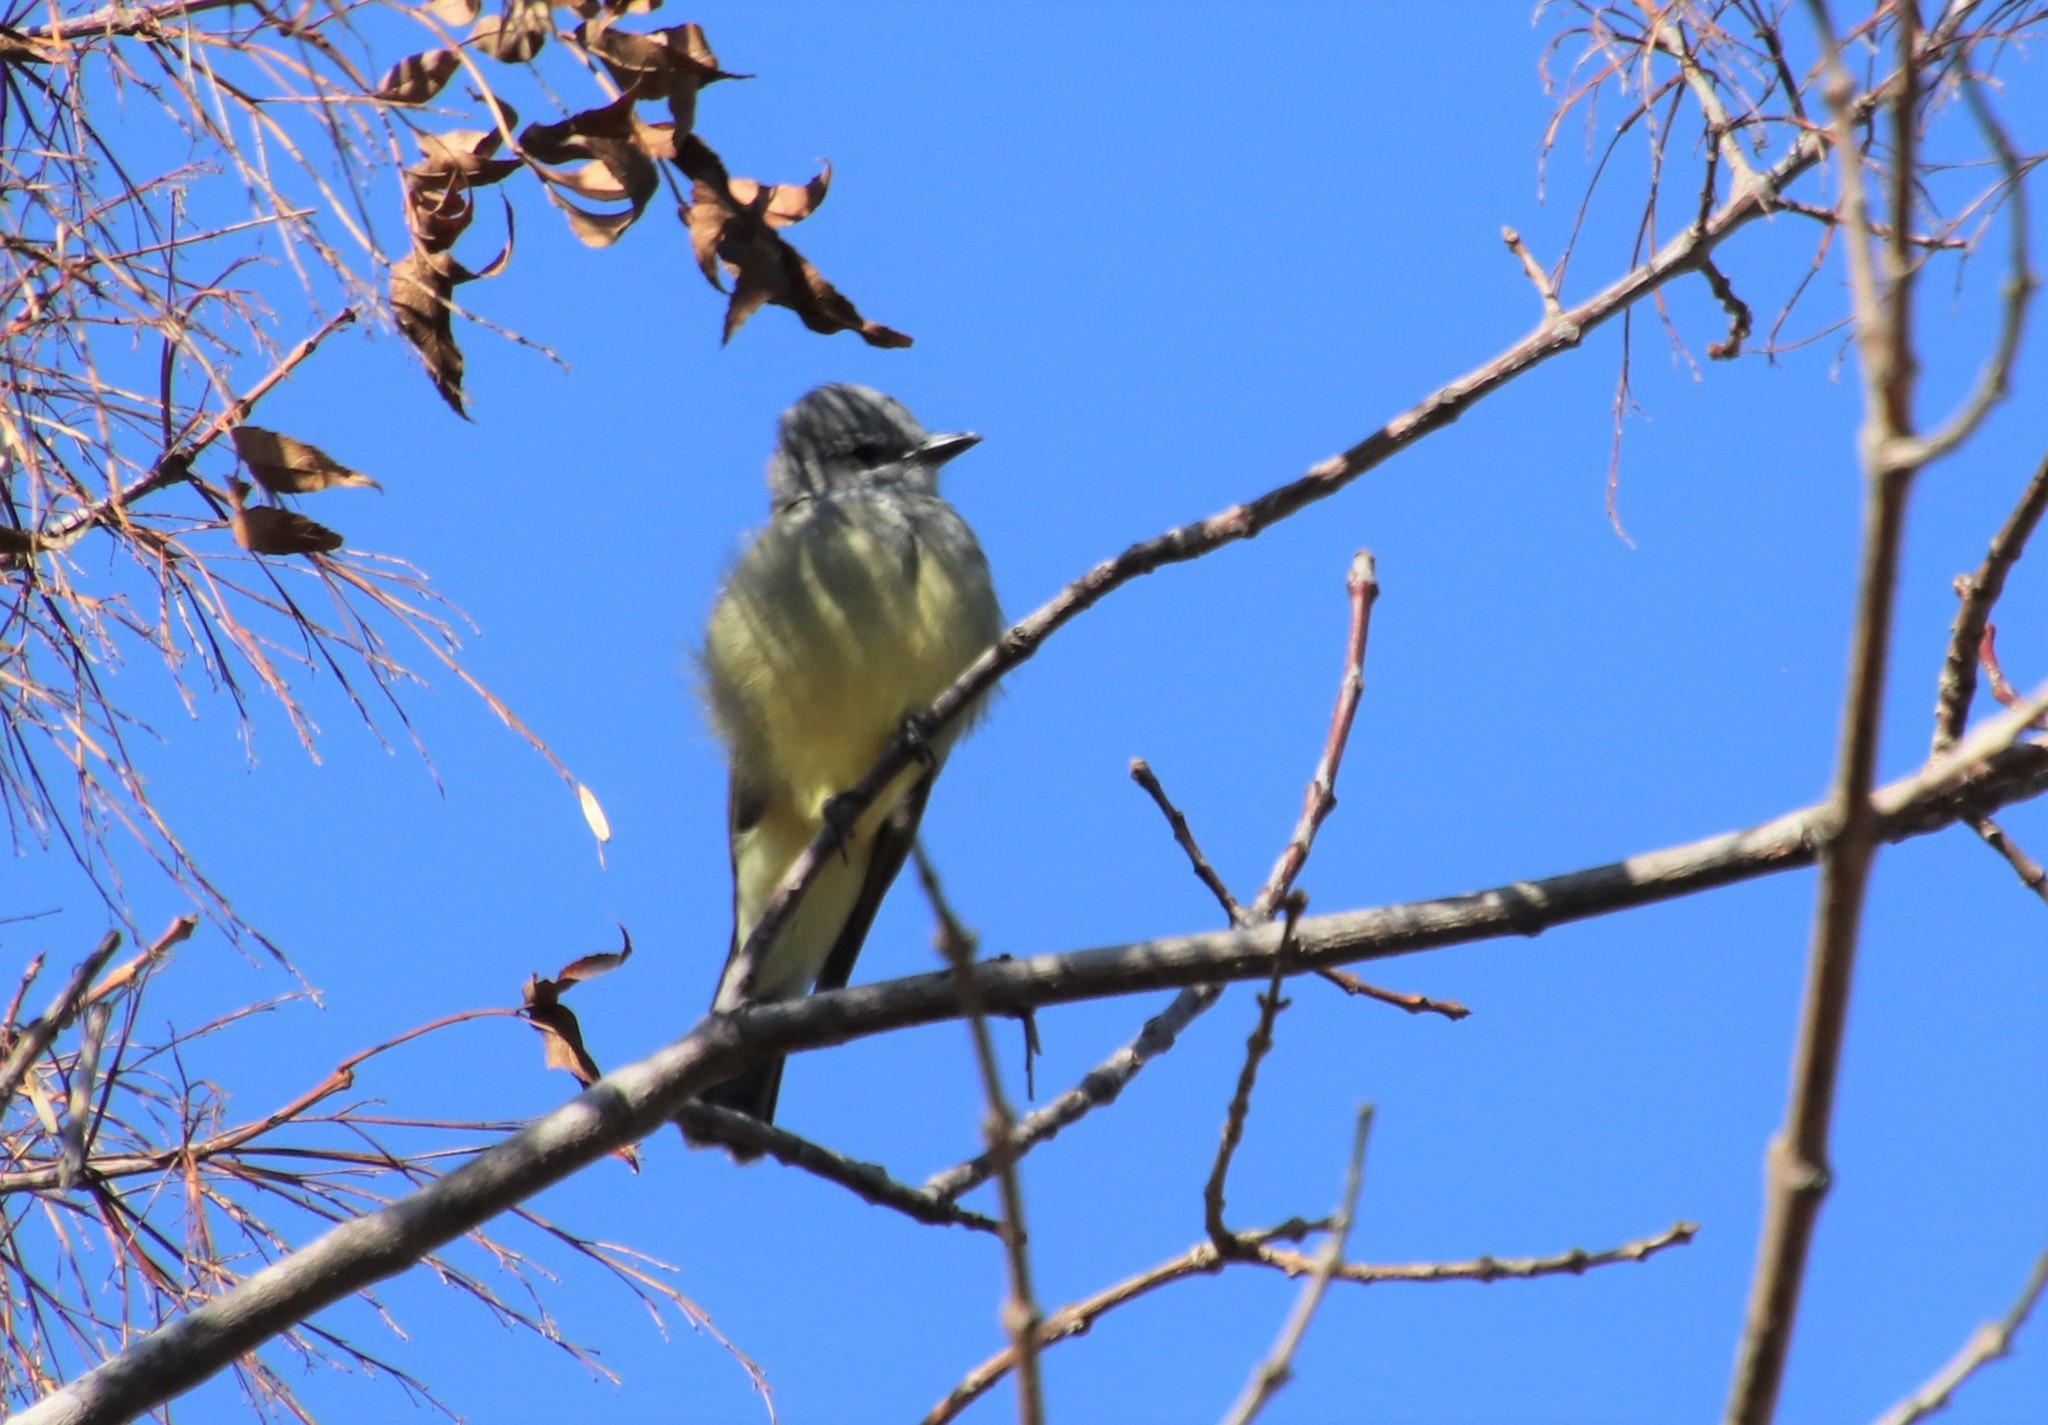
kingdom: Animalia
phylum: Chordata
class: Aves
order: Passeriformes
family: Tyrannidae
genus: Tyrannus
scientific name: Tyrannus vociferans
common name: Cassin's kingbird
